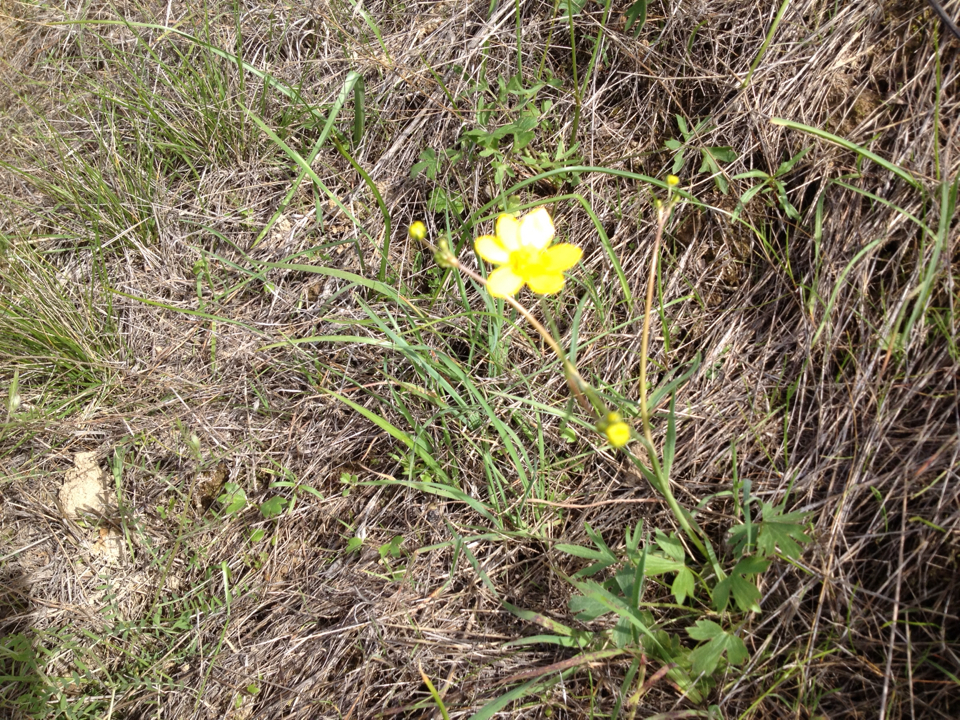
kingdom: Plantae
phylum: Tracheophyta
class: Magnoliopsida
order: Ranunculales
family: Ranunculaceae
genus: Ranunculus
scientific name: Ranunculus occidentalis
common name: Western buttercup
